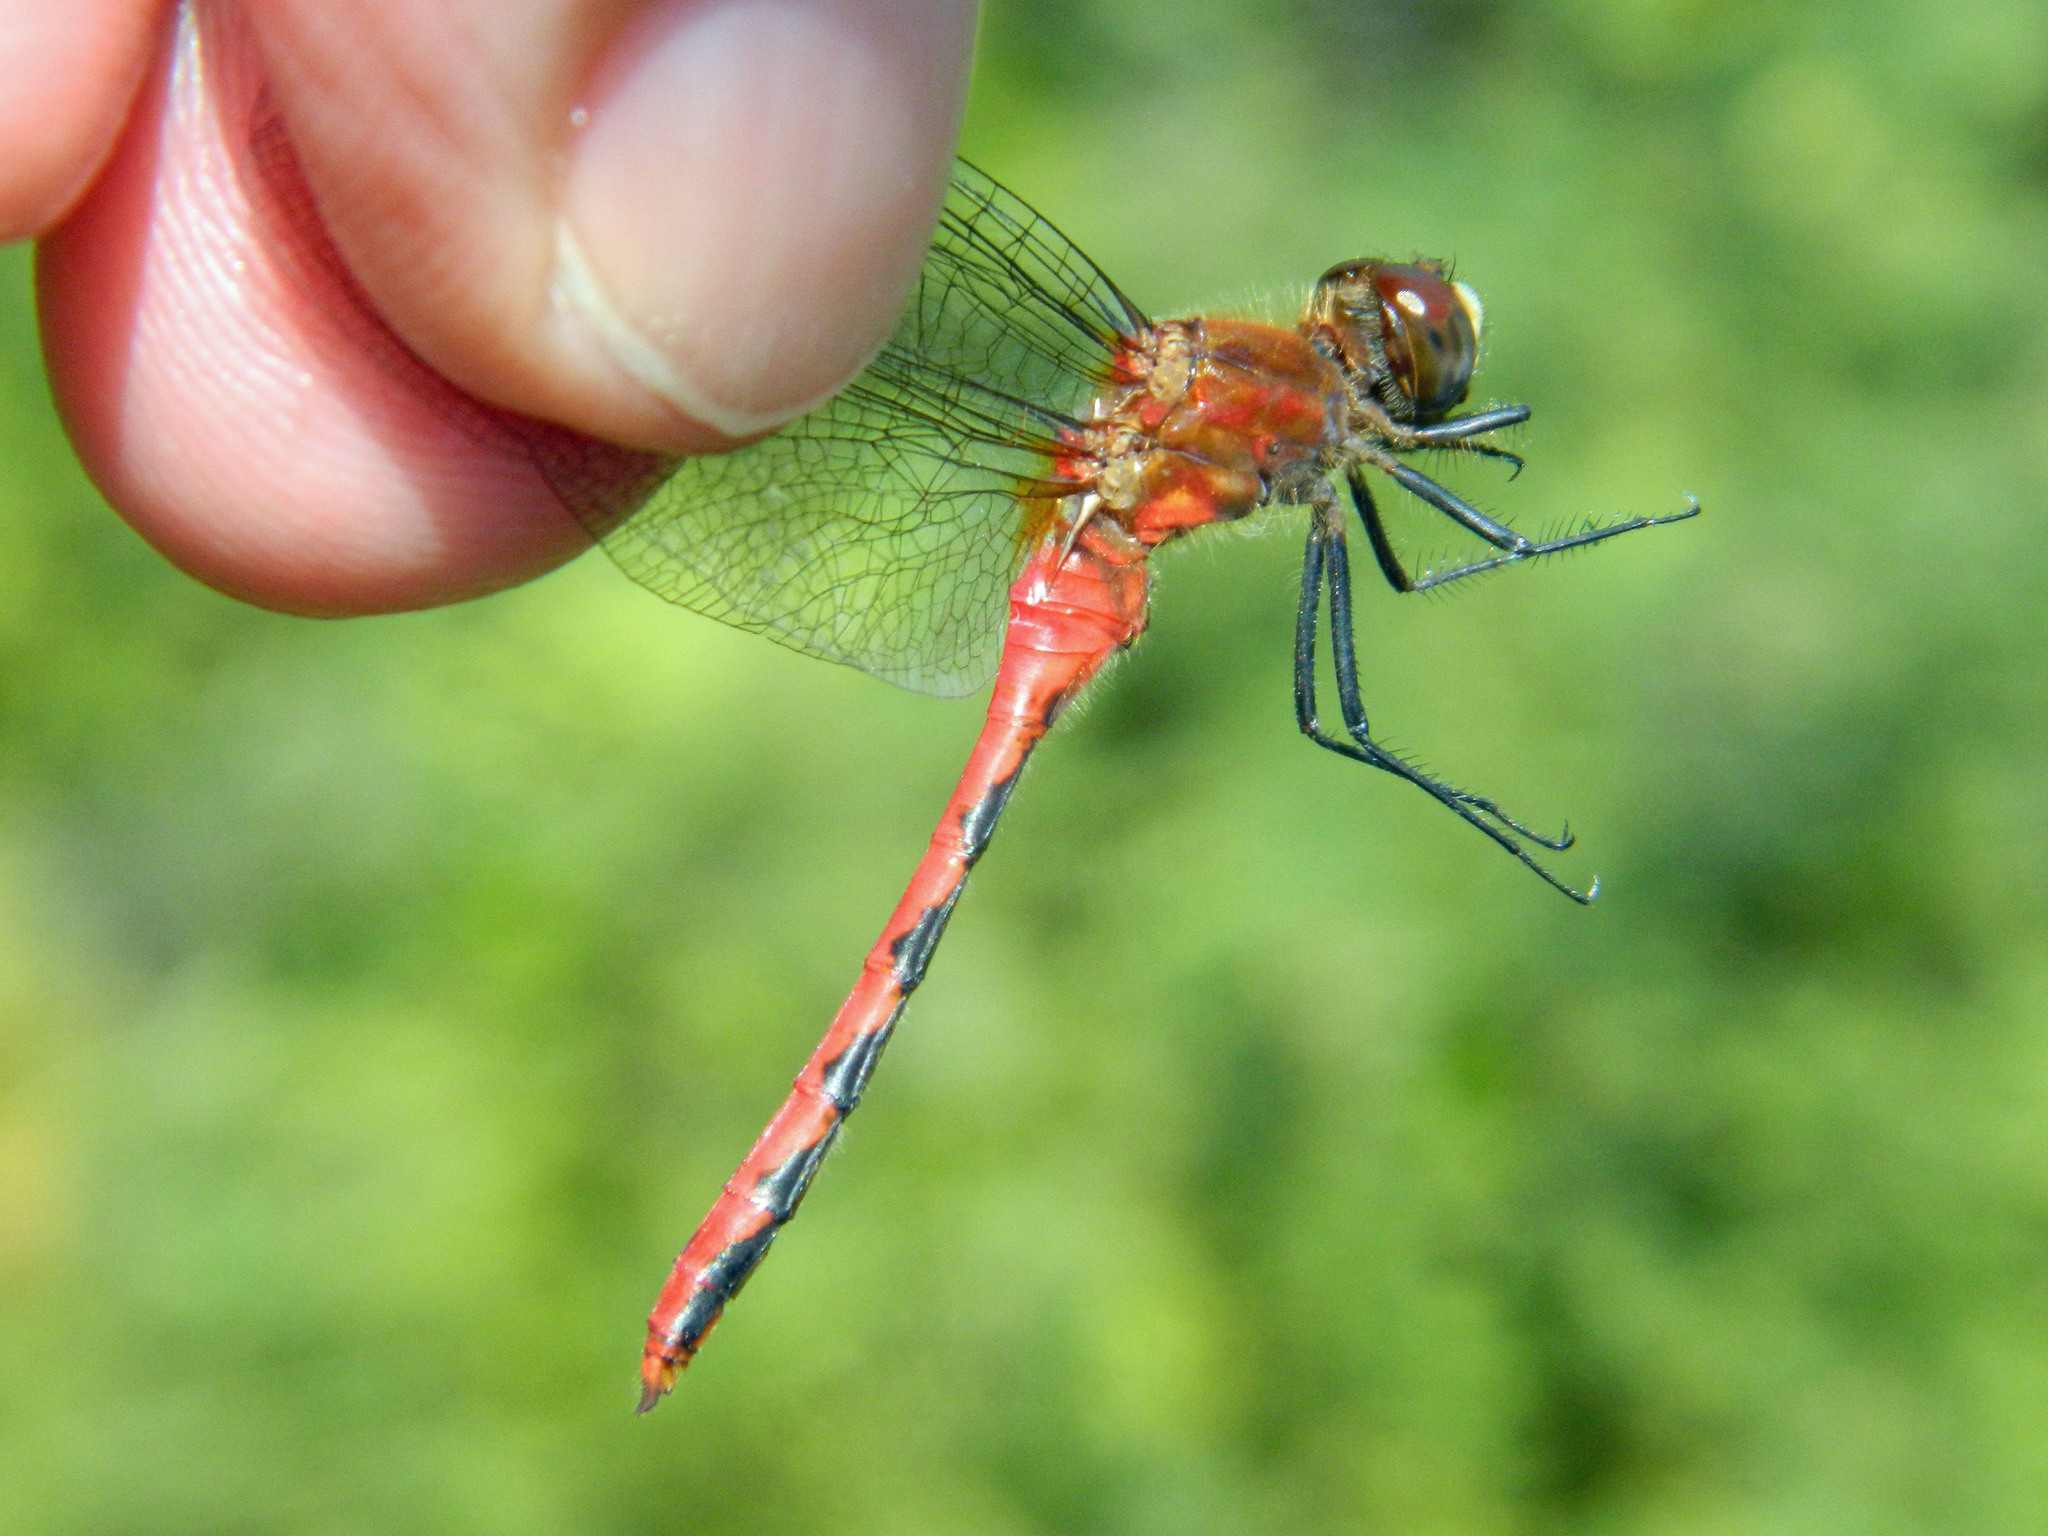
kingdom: Animalia
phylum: Arthropoda
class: Insecta
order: Odonata
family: Libellulidae
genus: Sympetrum
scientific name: Sympetrum obtrusum
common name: White-faced meadowhawk
